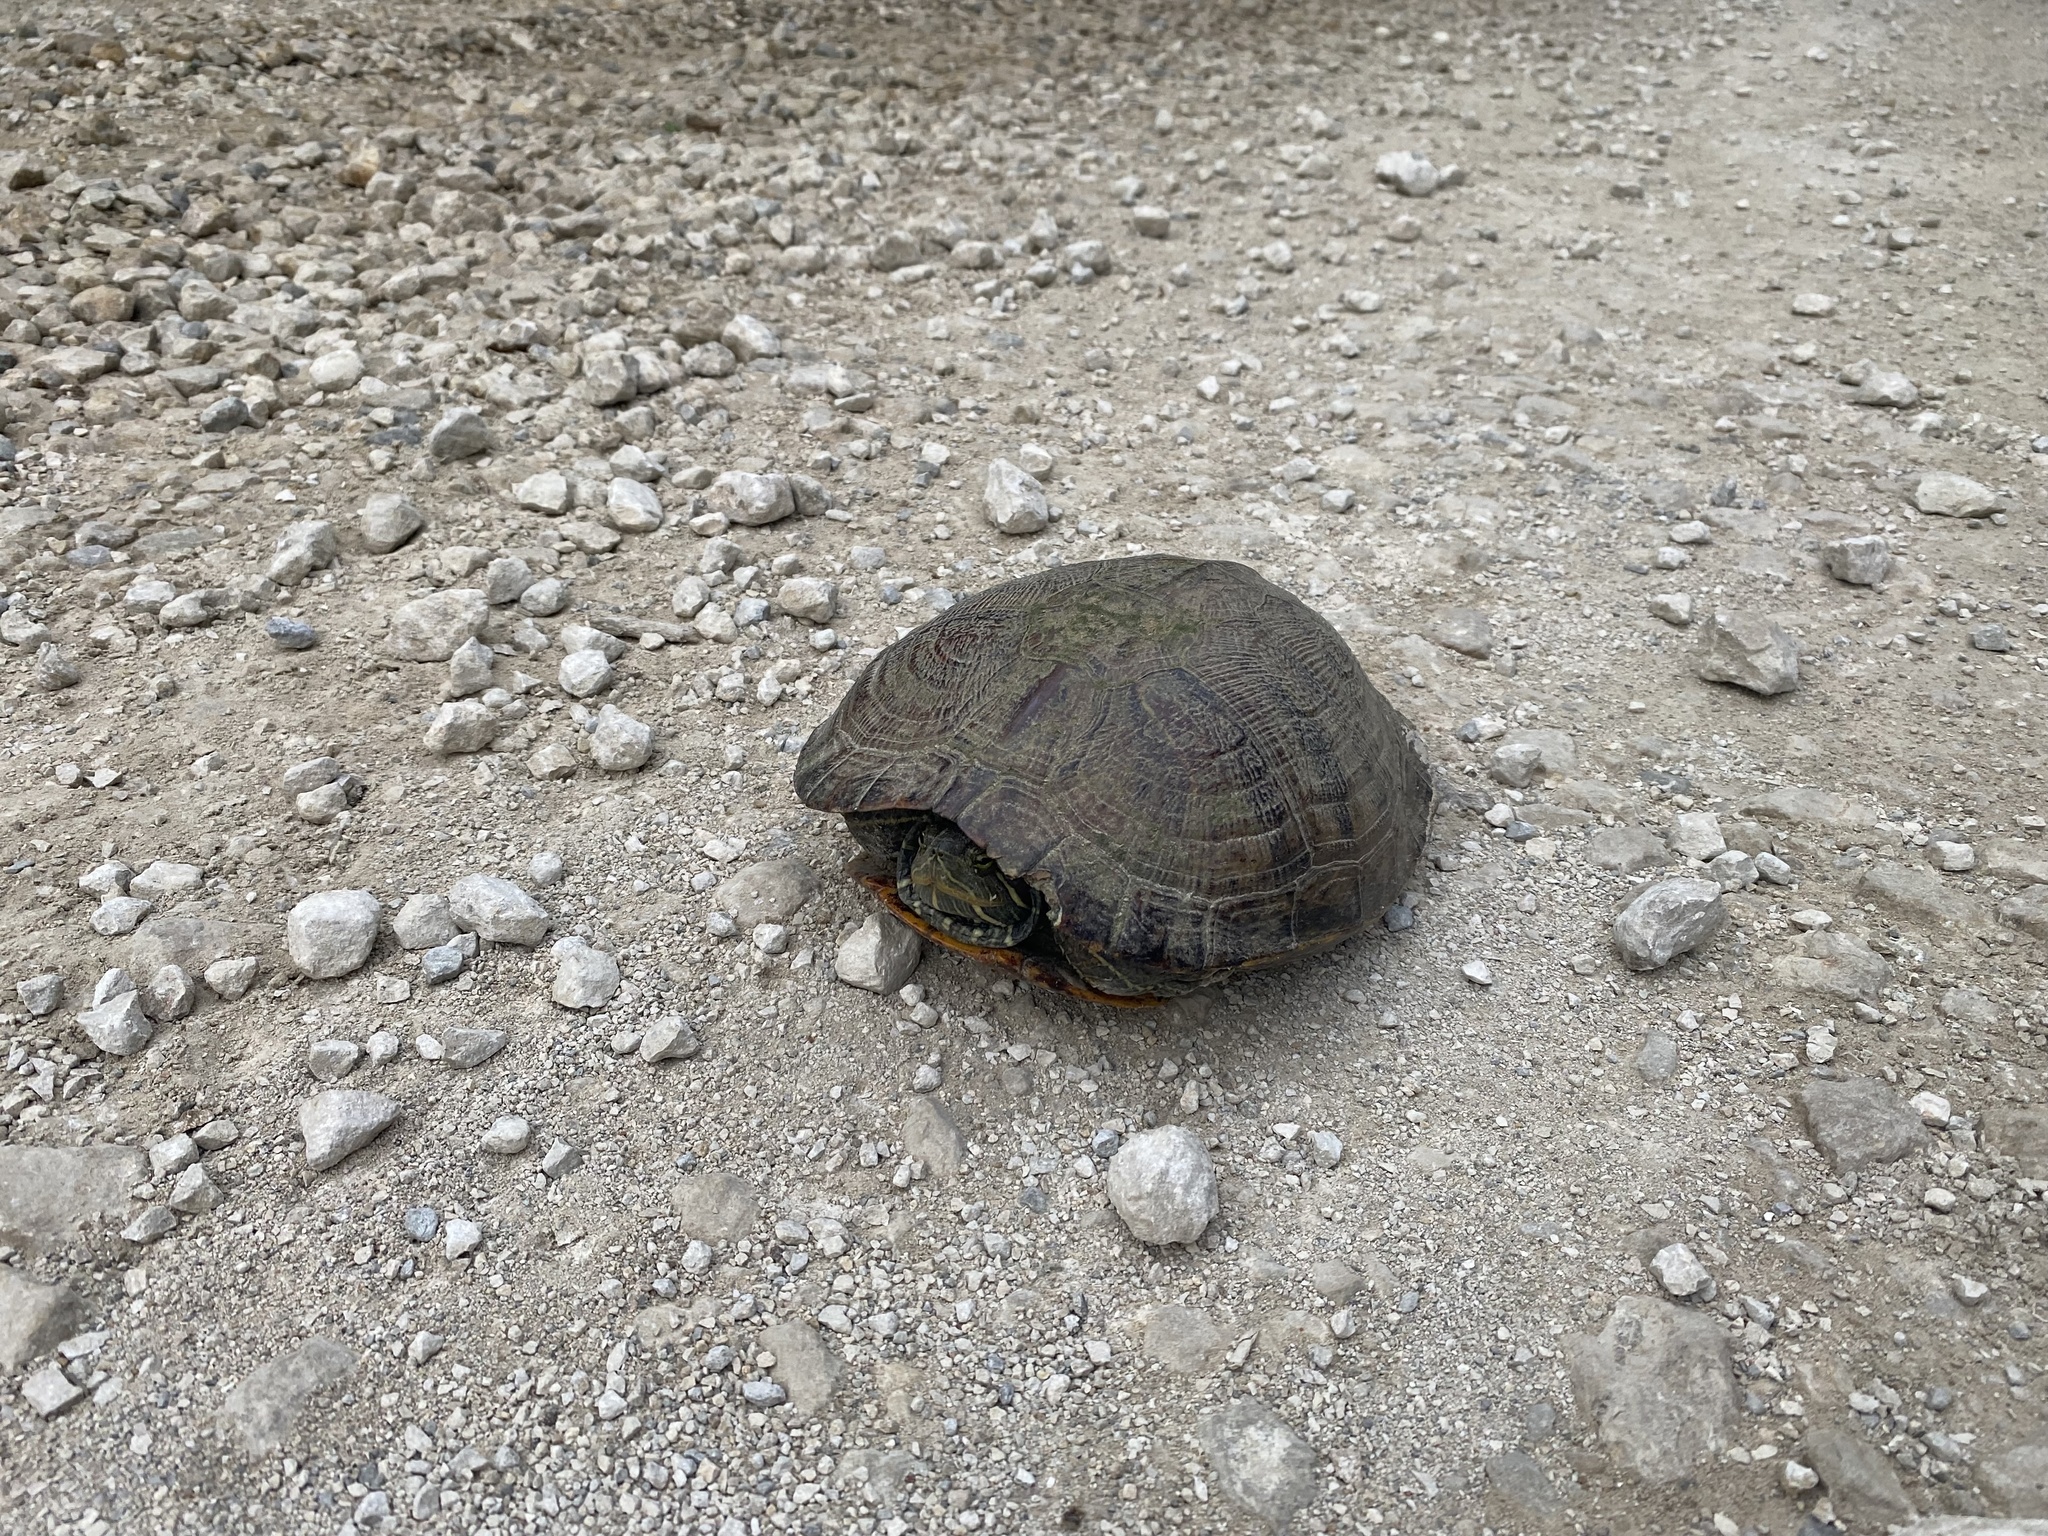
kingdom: Animalia
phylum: Chordata
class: Testudines
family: Emydidae
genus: Trachemys
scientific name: Trachemys scripta
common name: Slider
